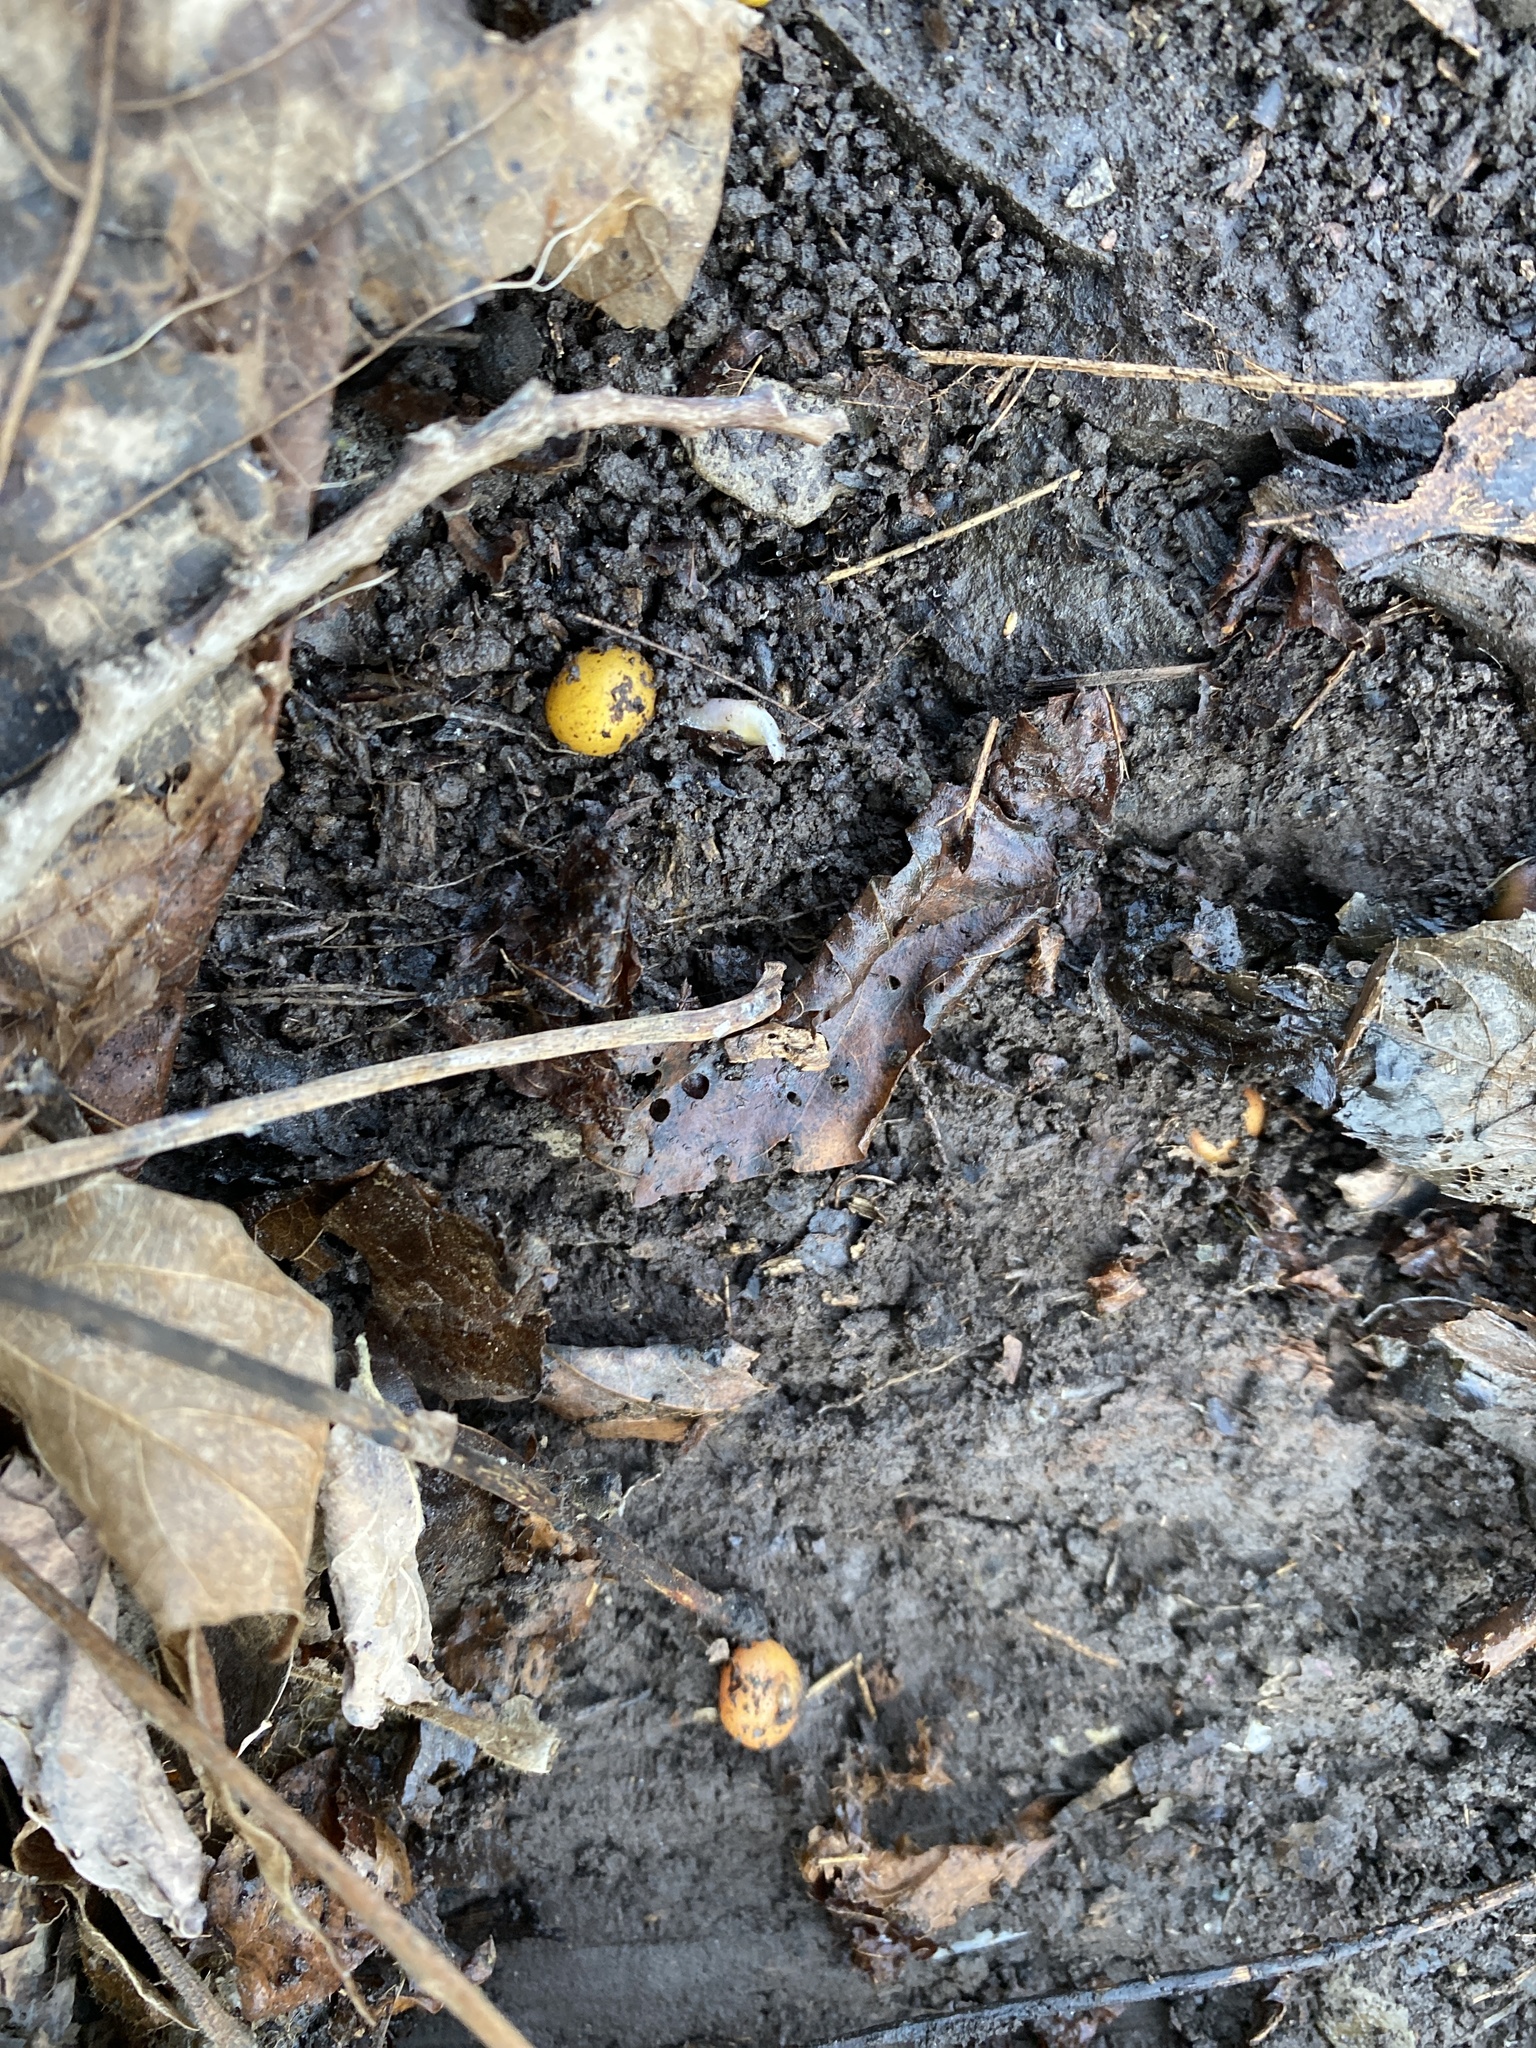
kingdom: Plantae
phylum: Tracheophyta
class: Magnoliopsida
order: Ranunculales
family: Papaveraceae
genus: Dicentra
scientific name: Dicentra canadensis
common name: Squirrel-corn
